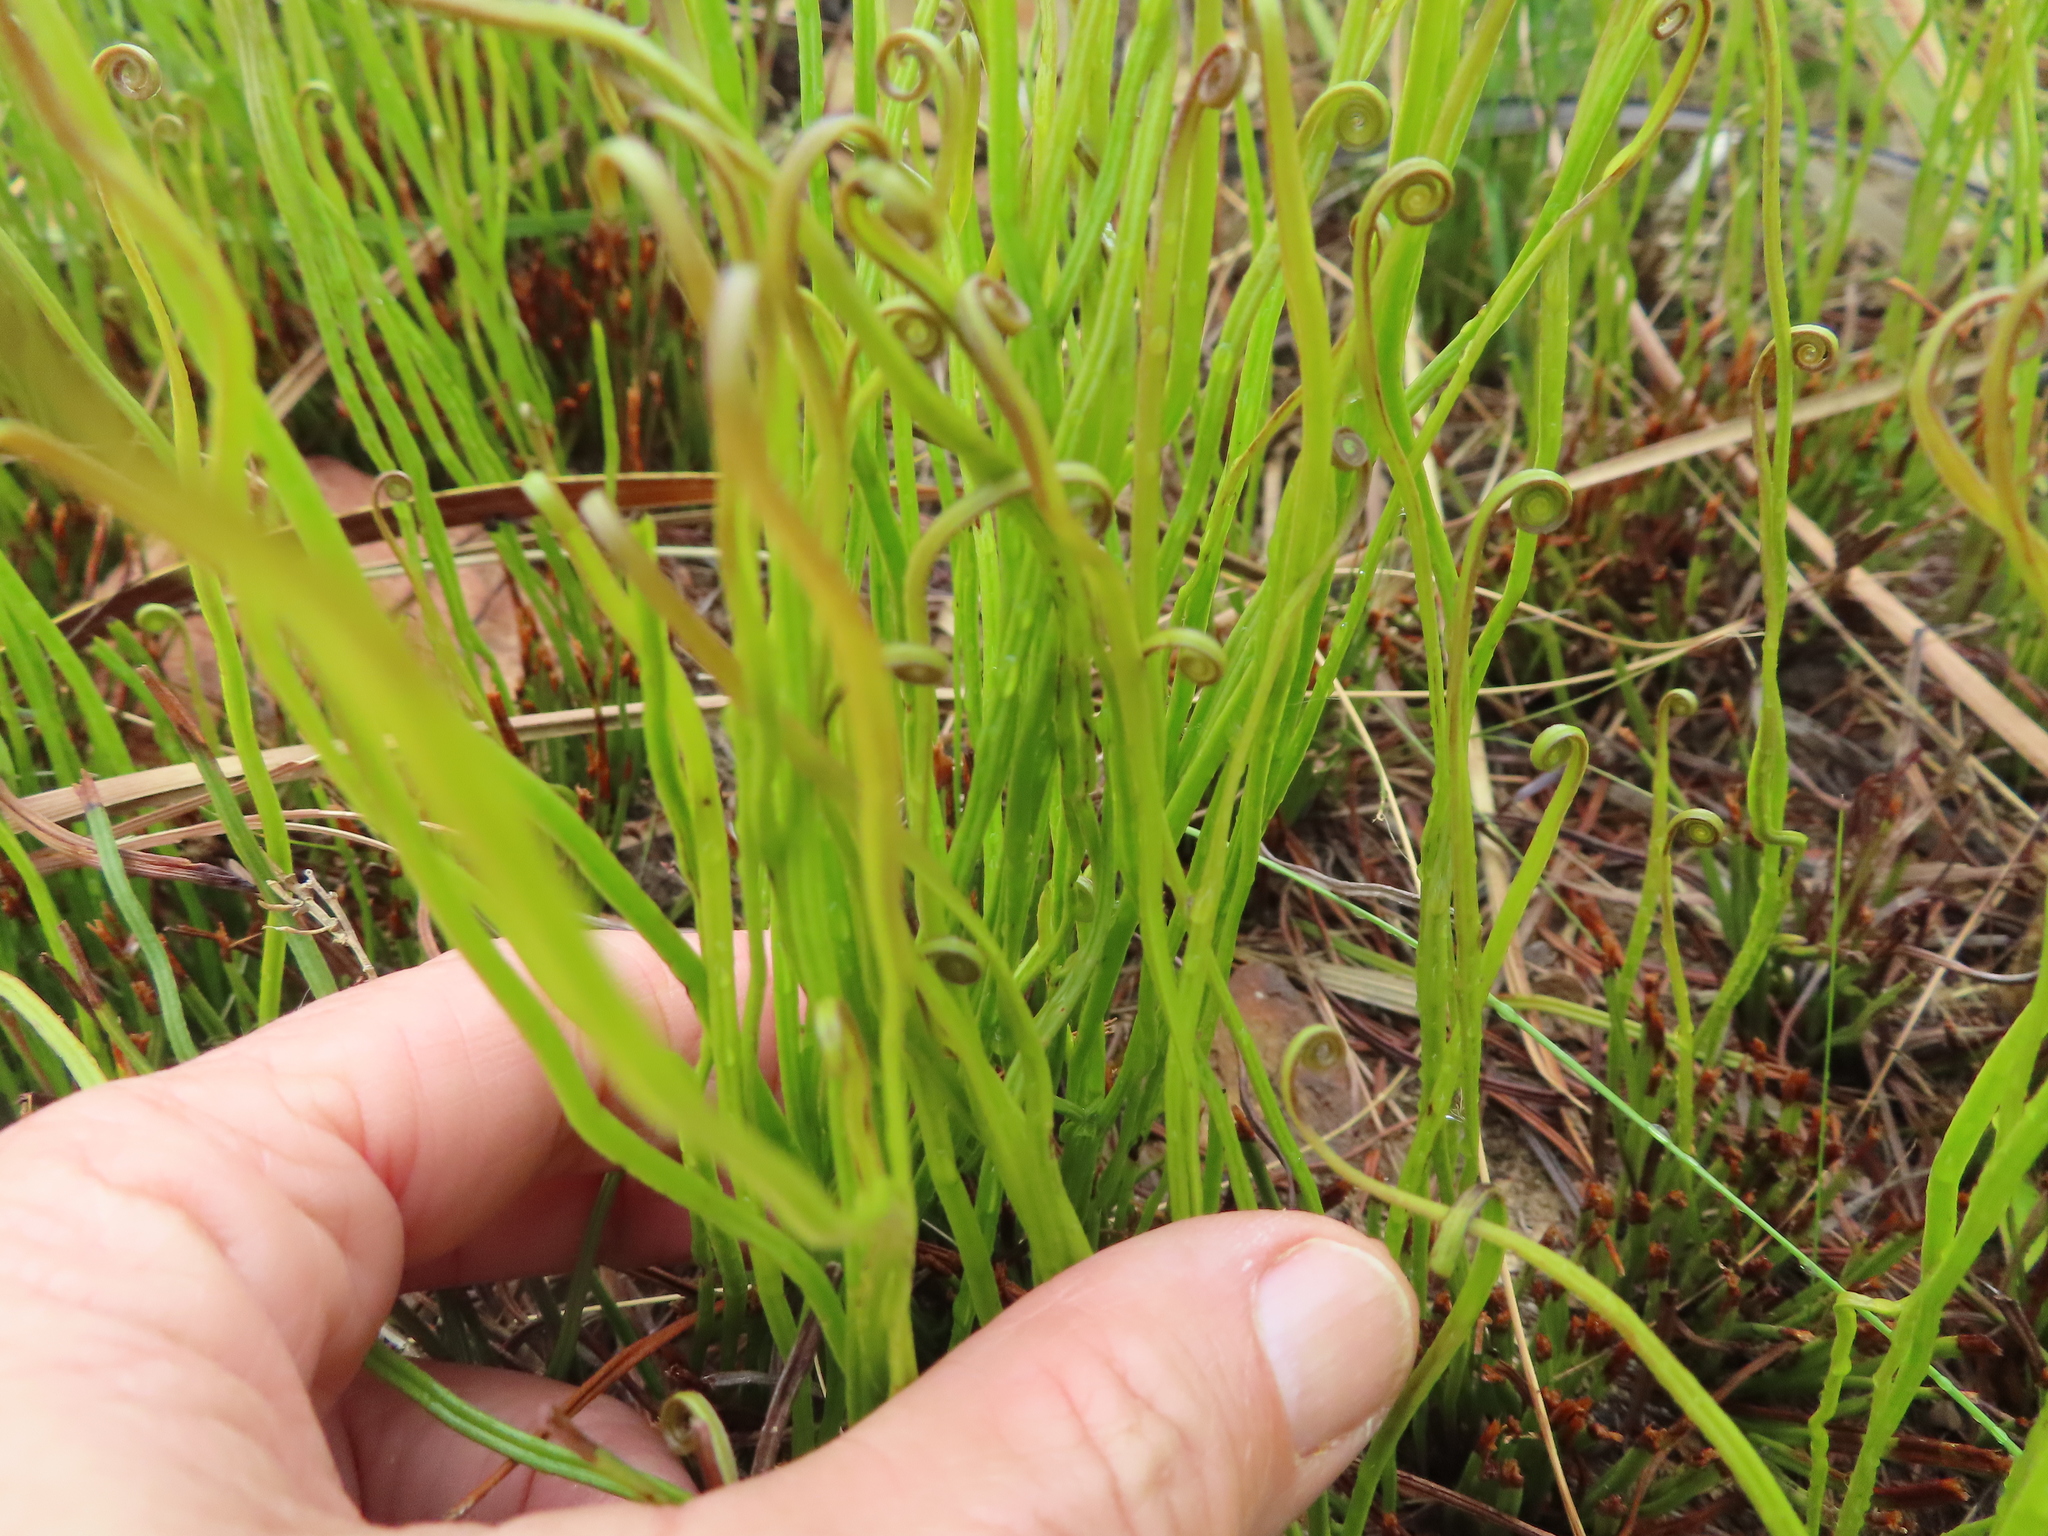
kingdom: Plantae
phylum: Tracheophyta
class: Polypodiopsida
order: Schizaeales
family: Schizaeaceae
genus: Schizaea
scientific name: Schizaea pectinata
